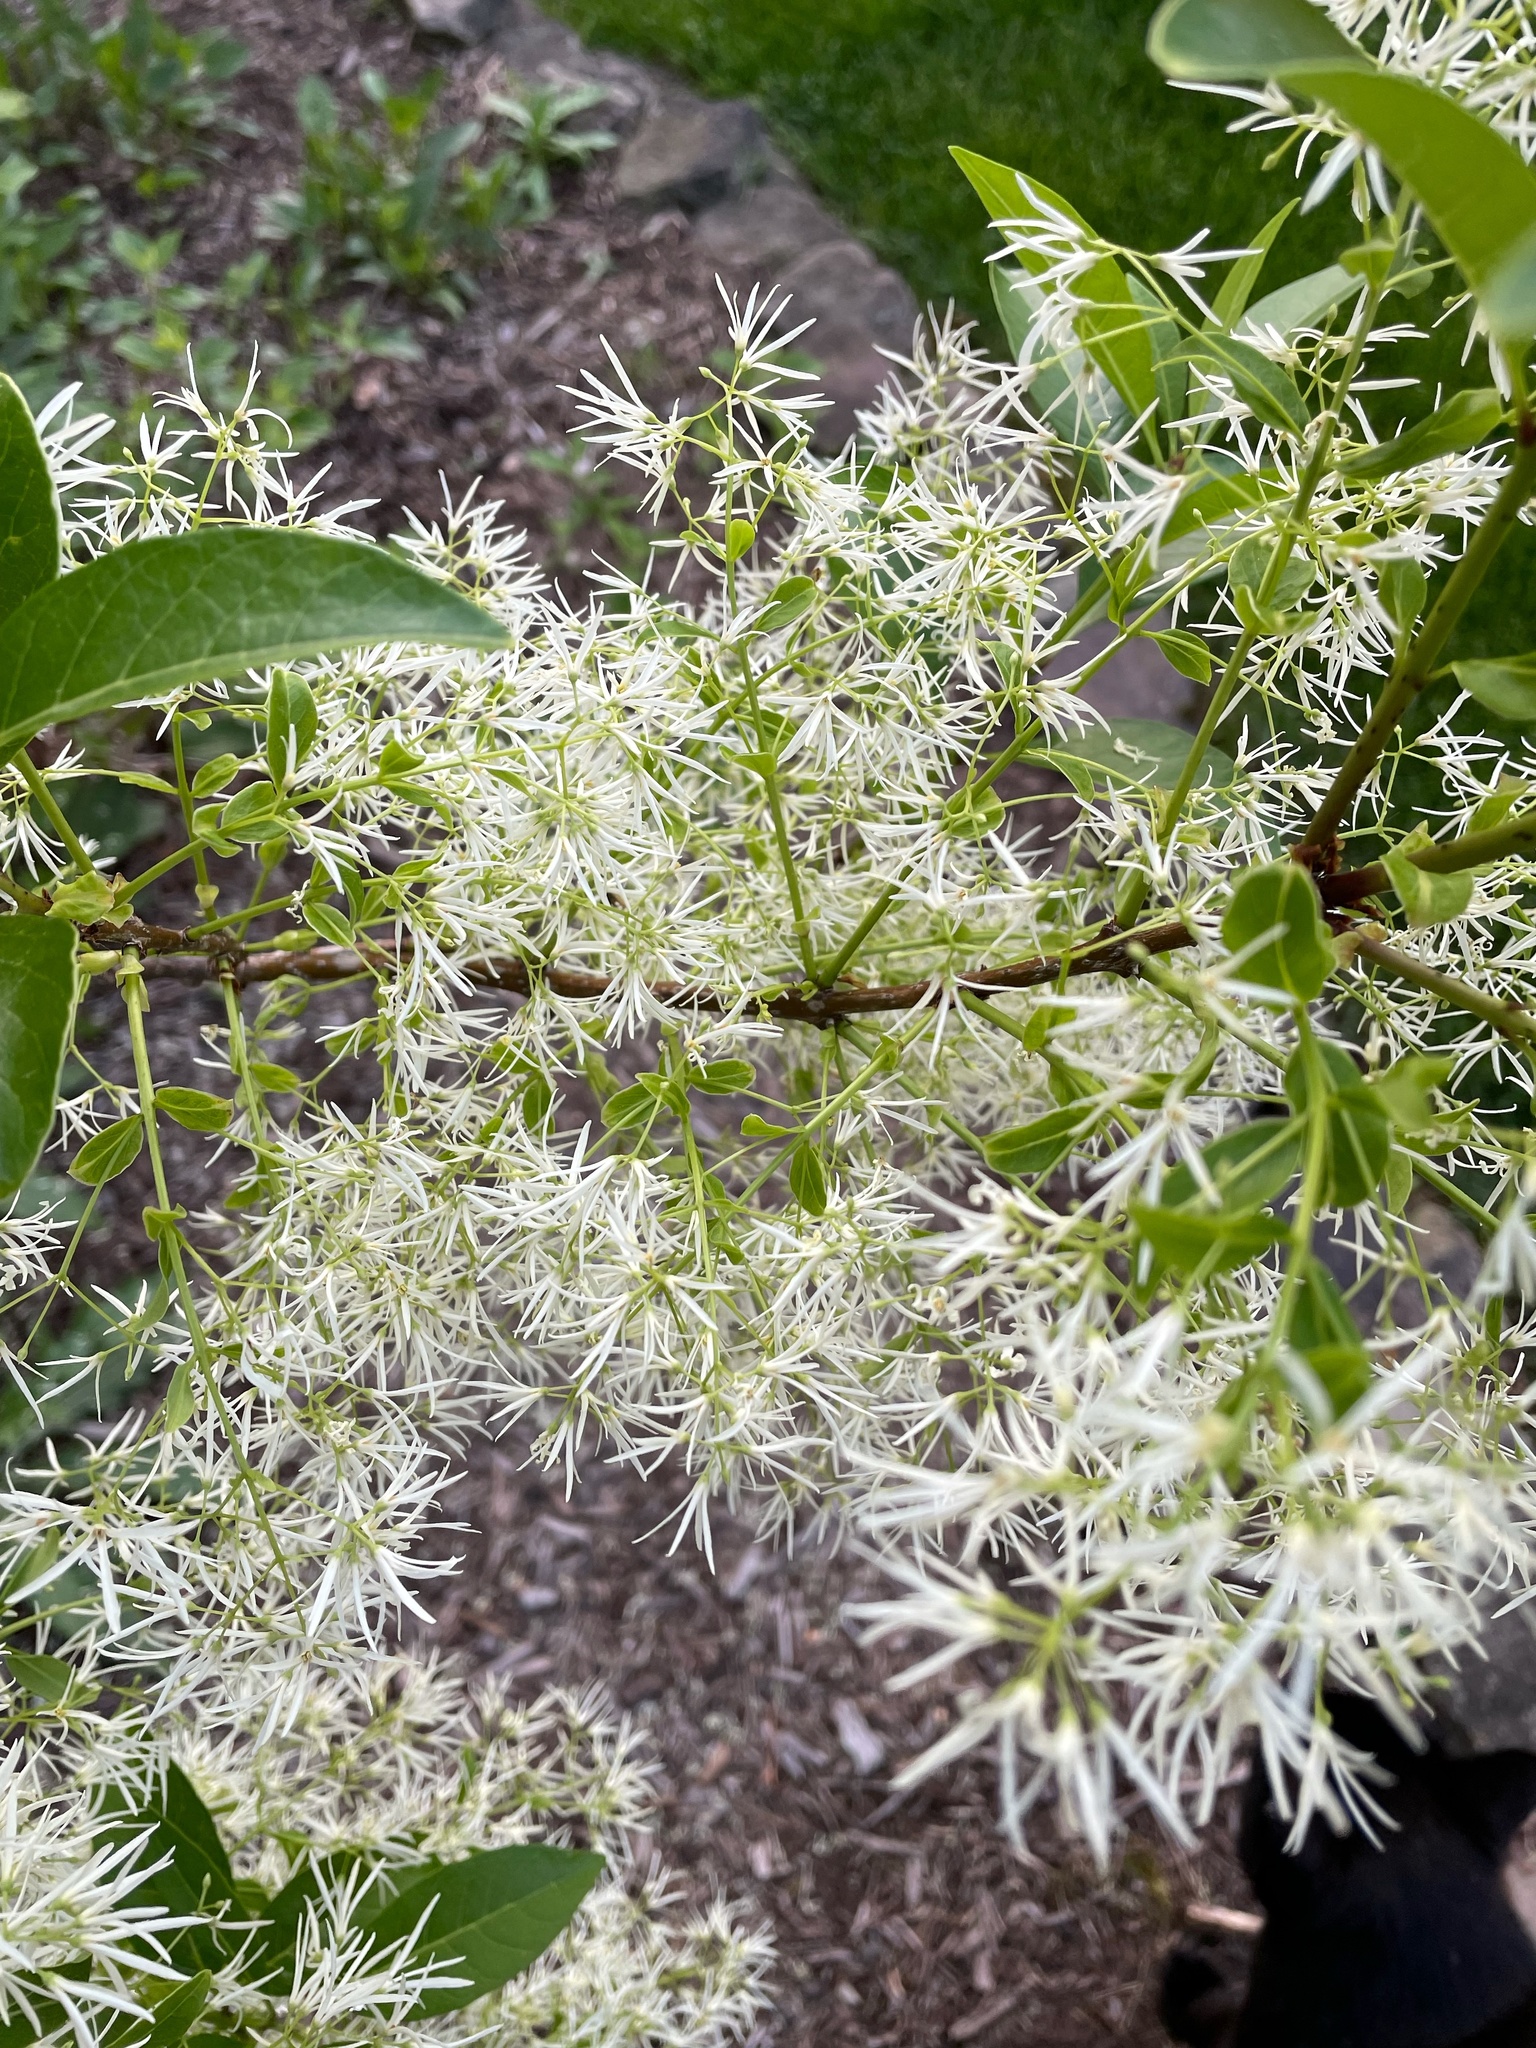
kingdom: Plantae
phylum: Tracheophyta
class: Magnoliopsida
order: Lamiales
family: Oleaceae
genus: Chionanthus
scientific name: Chionanthus virginicus
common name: American fringetree
